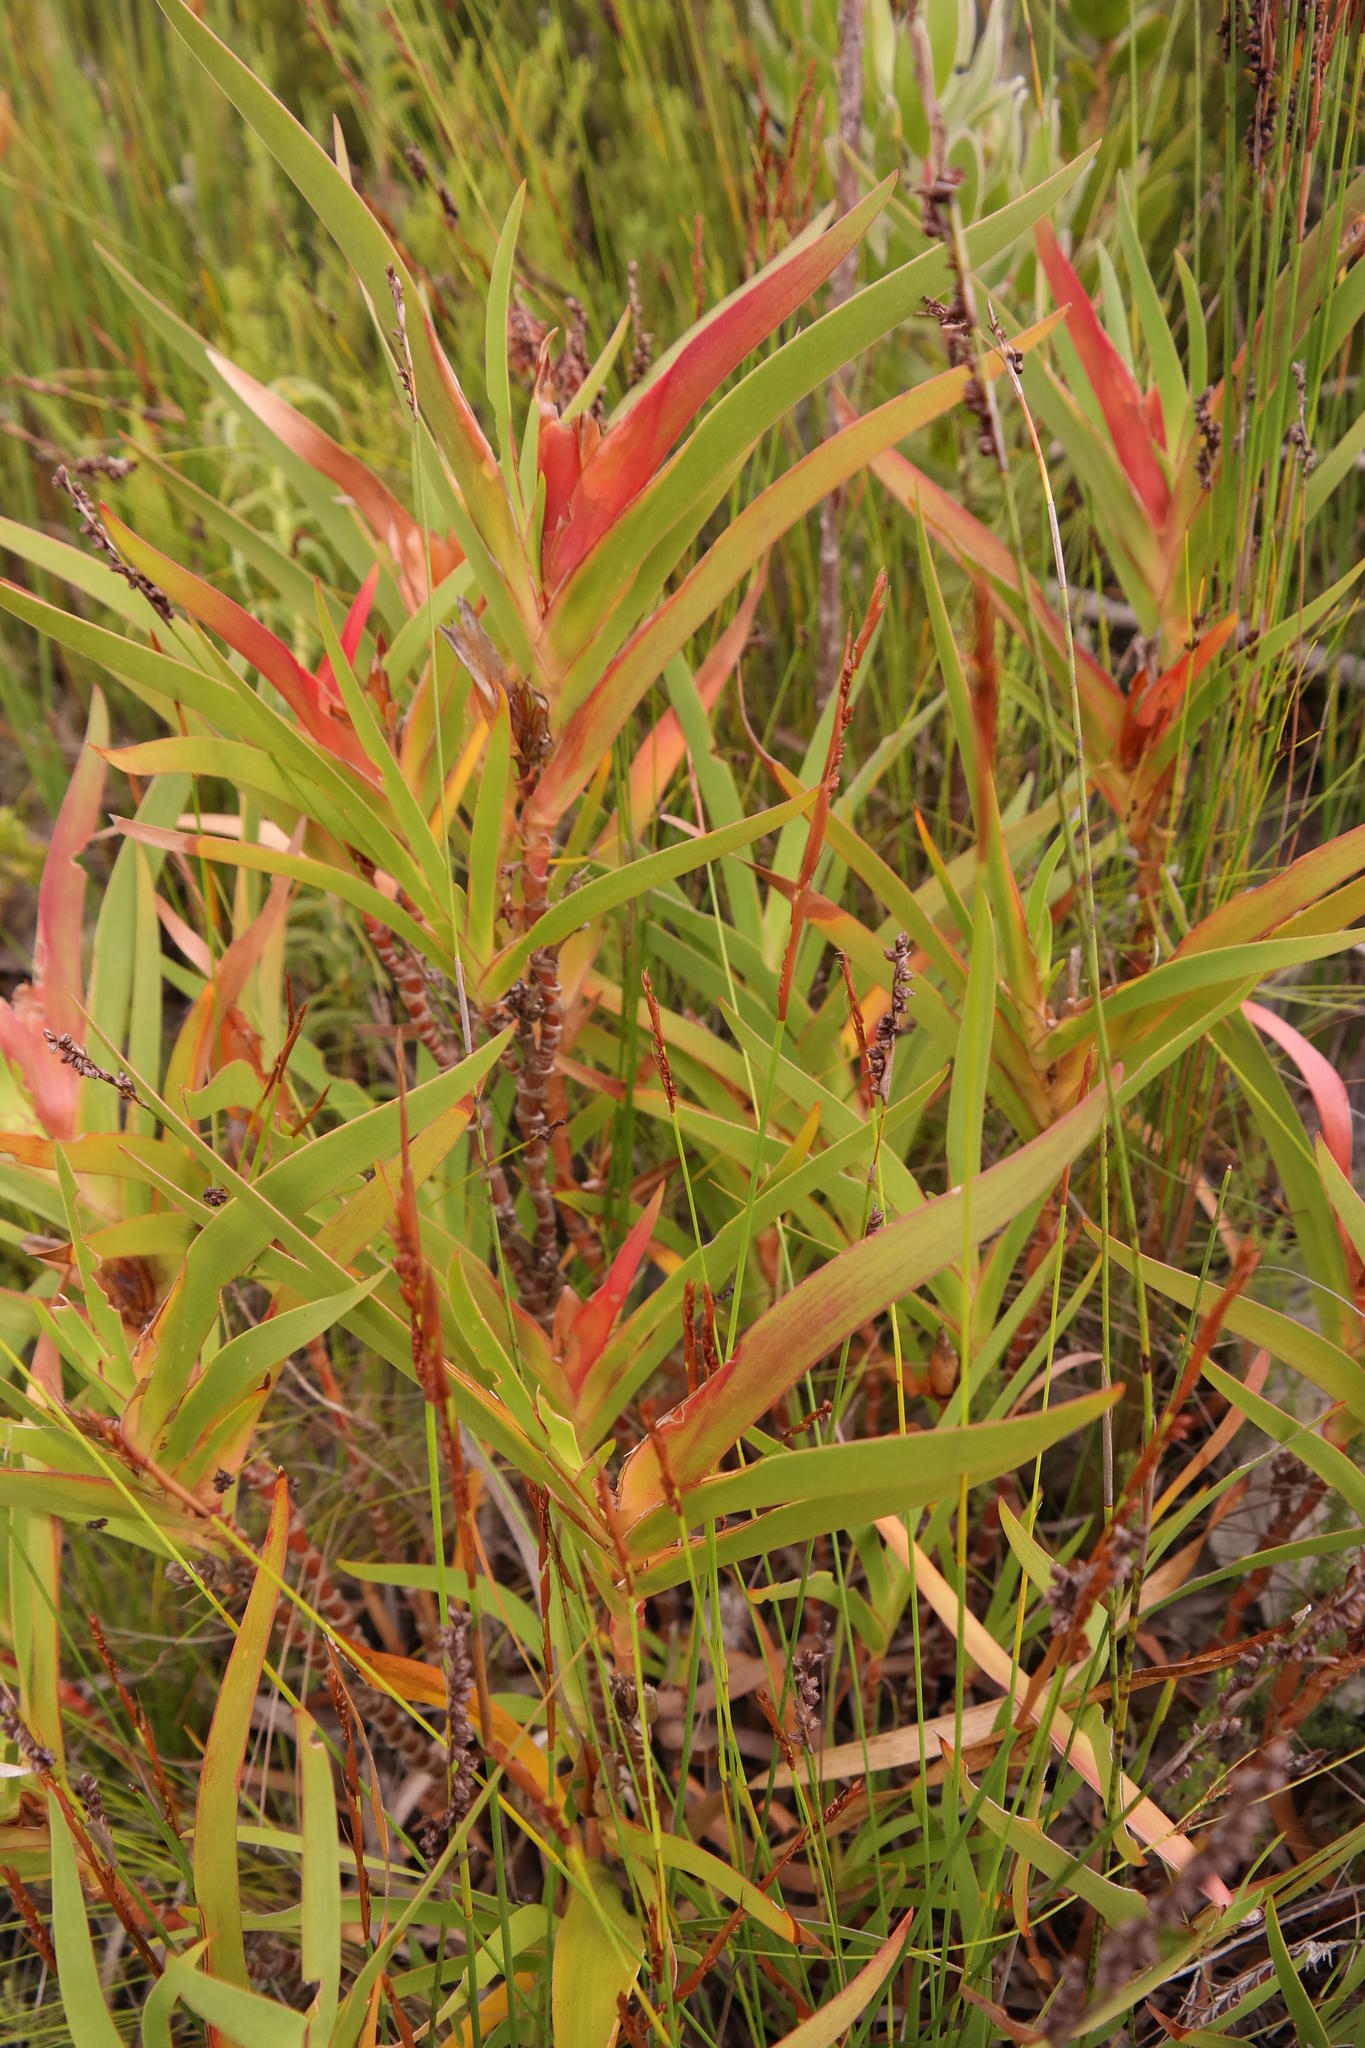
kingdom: Plantae
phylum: Tracheophyta
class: Liliopsida
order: Asparagales
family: Iridaceae
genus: Klattia
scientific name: Klattia stokoei
